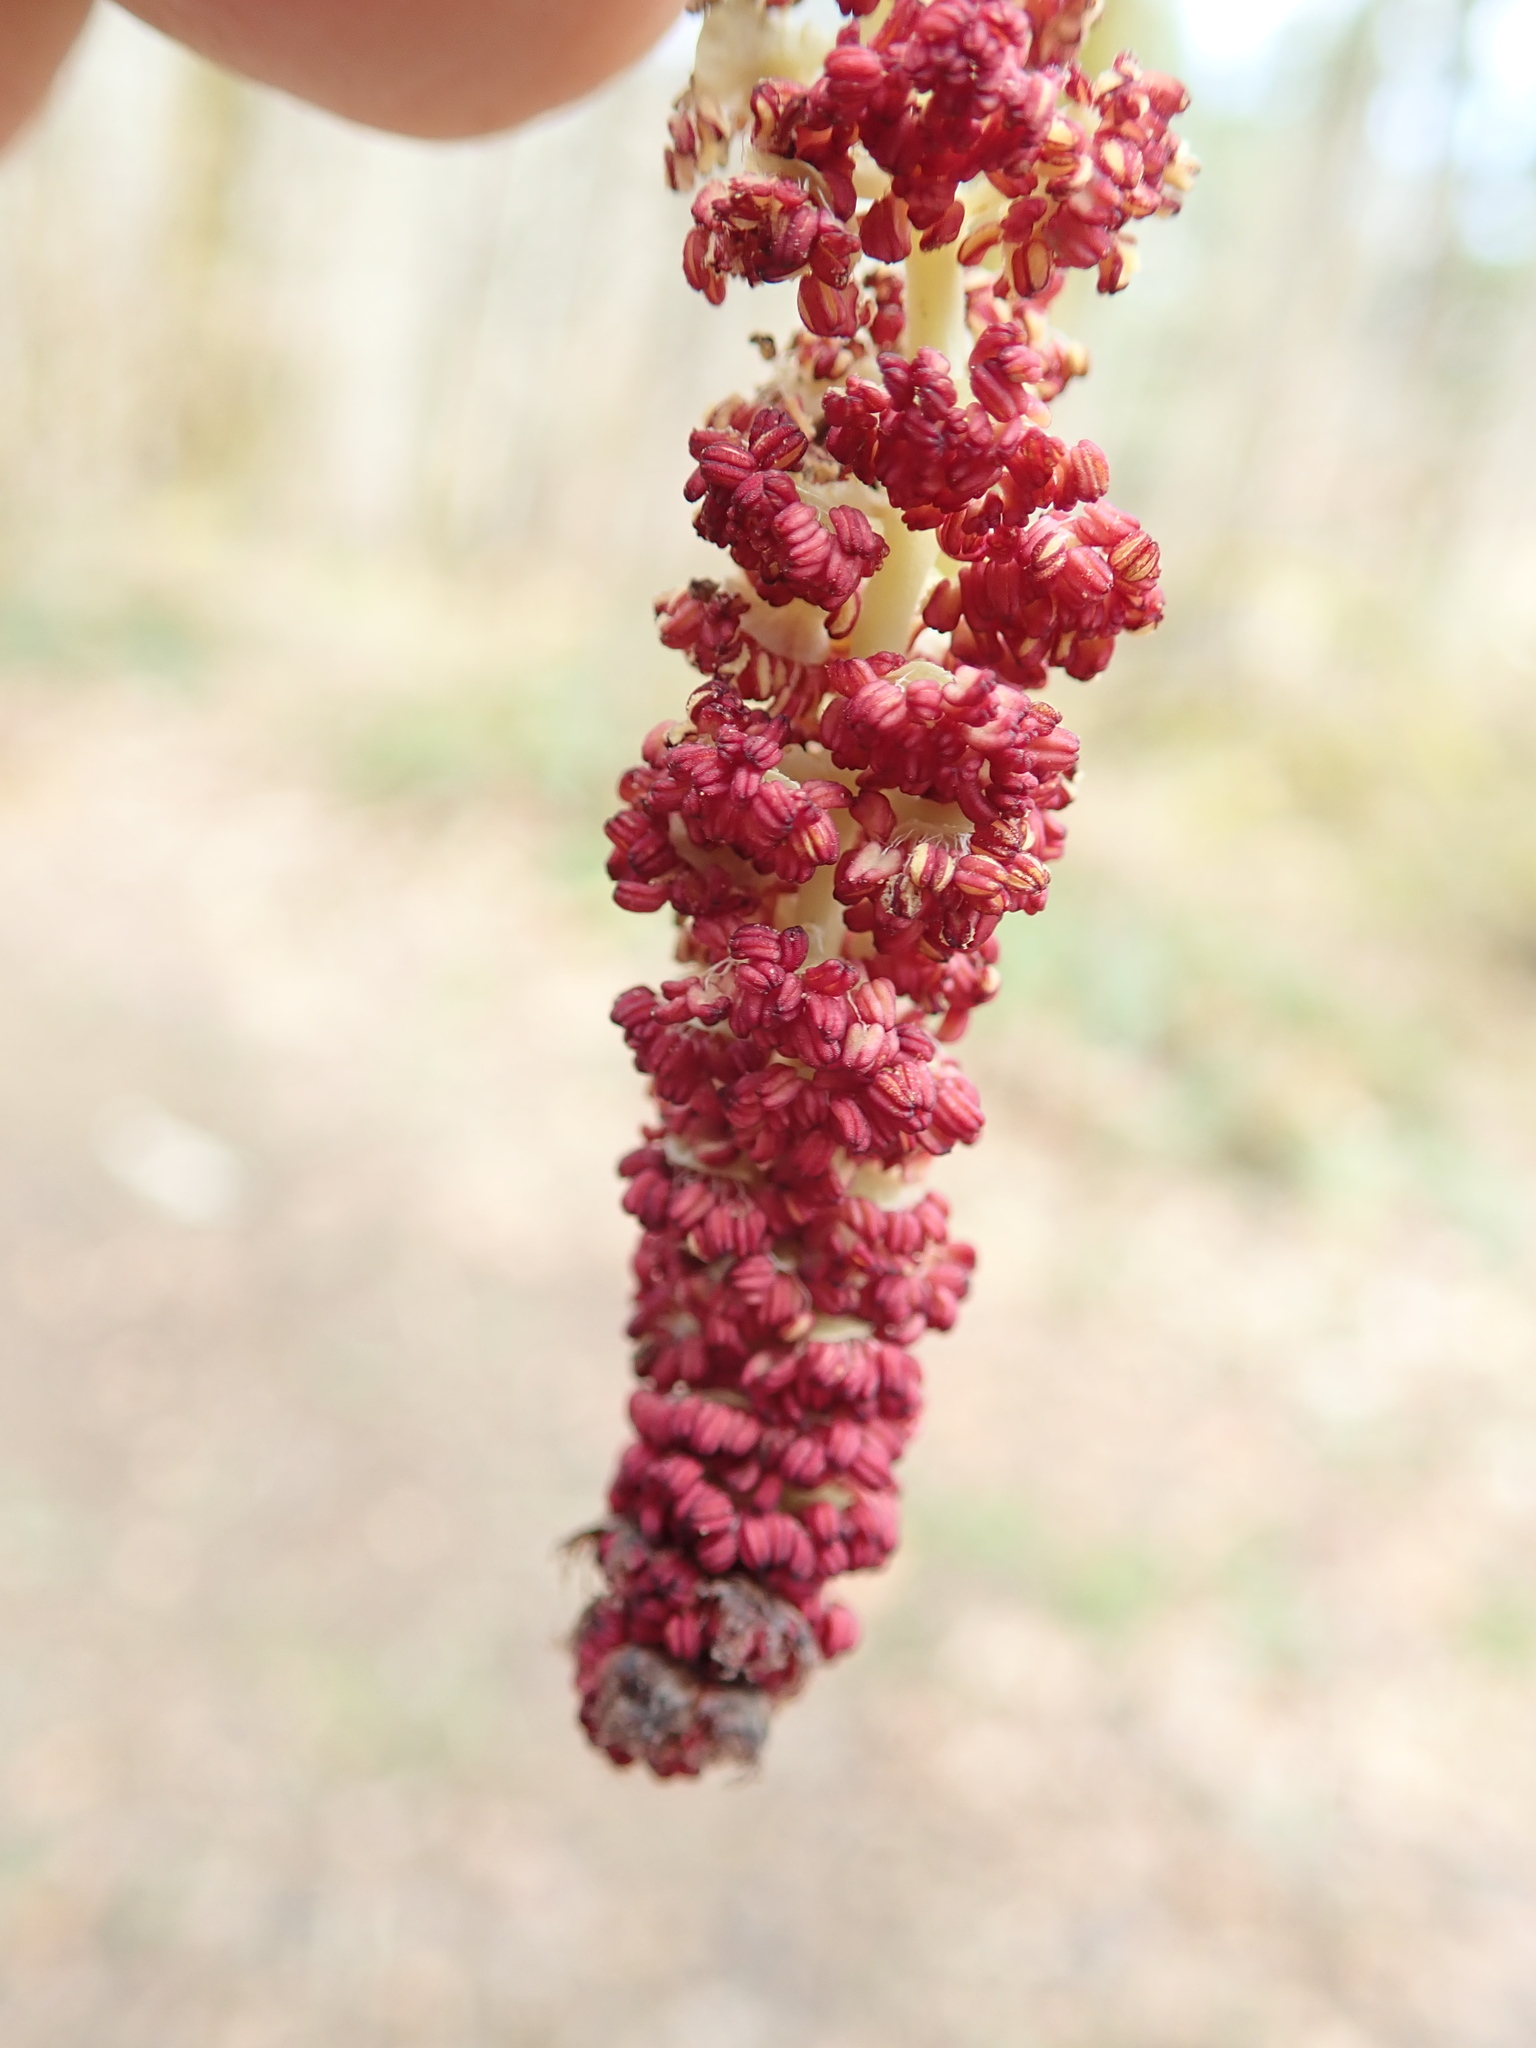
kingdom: Plantae
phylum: Tracheophyta
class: Magnoliopsida
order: Malpighiales
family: Salicaceae
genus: Populus
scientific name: Populus trichocarpa
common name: Black cottonwood
